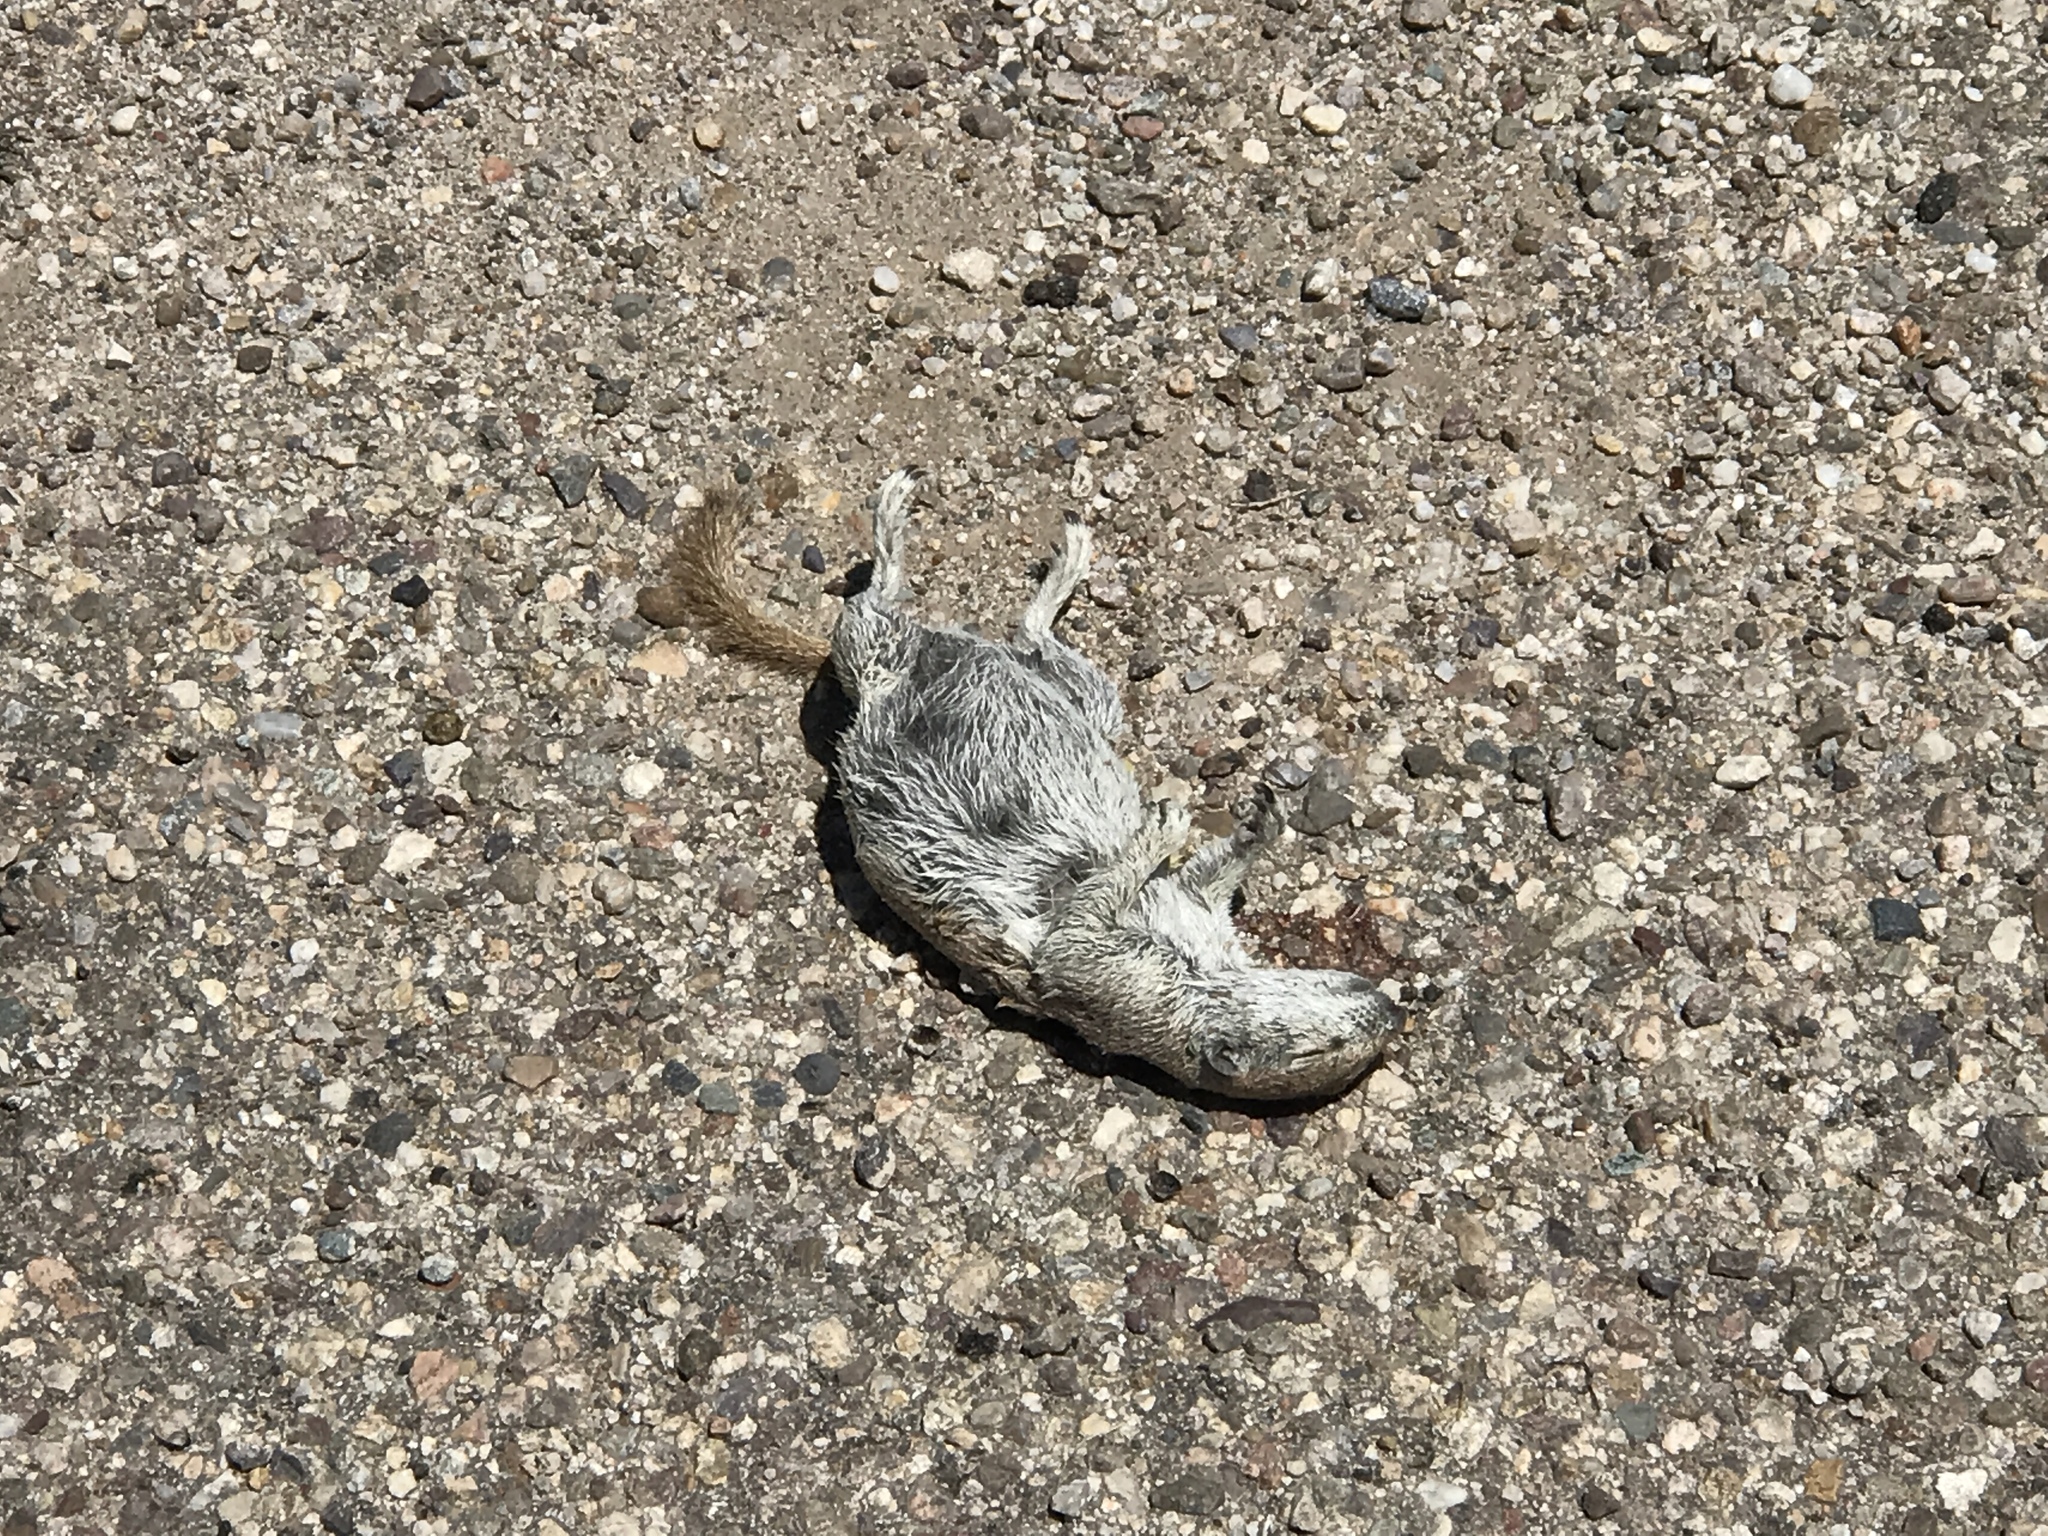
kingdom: Animalia
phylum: Chordata
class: Mammalia
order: Rodentia
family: Sciuridae
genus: Xerospermophilus
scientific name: Xerospermophilus tereticaudus
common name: Round-tailed ground squirrel
